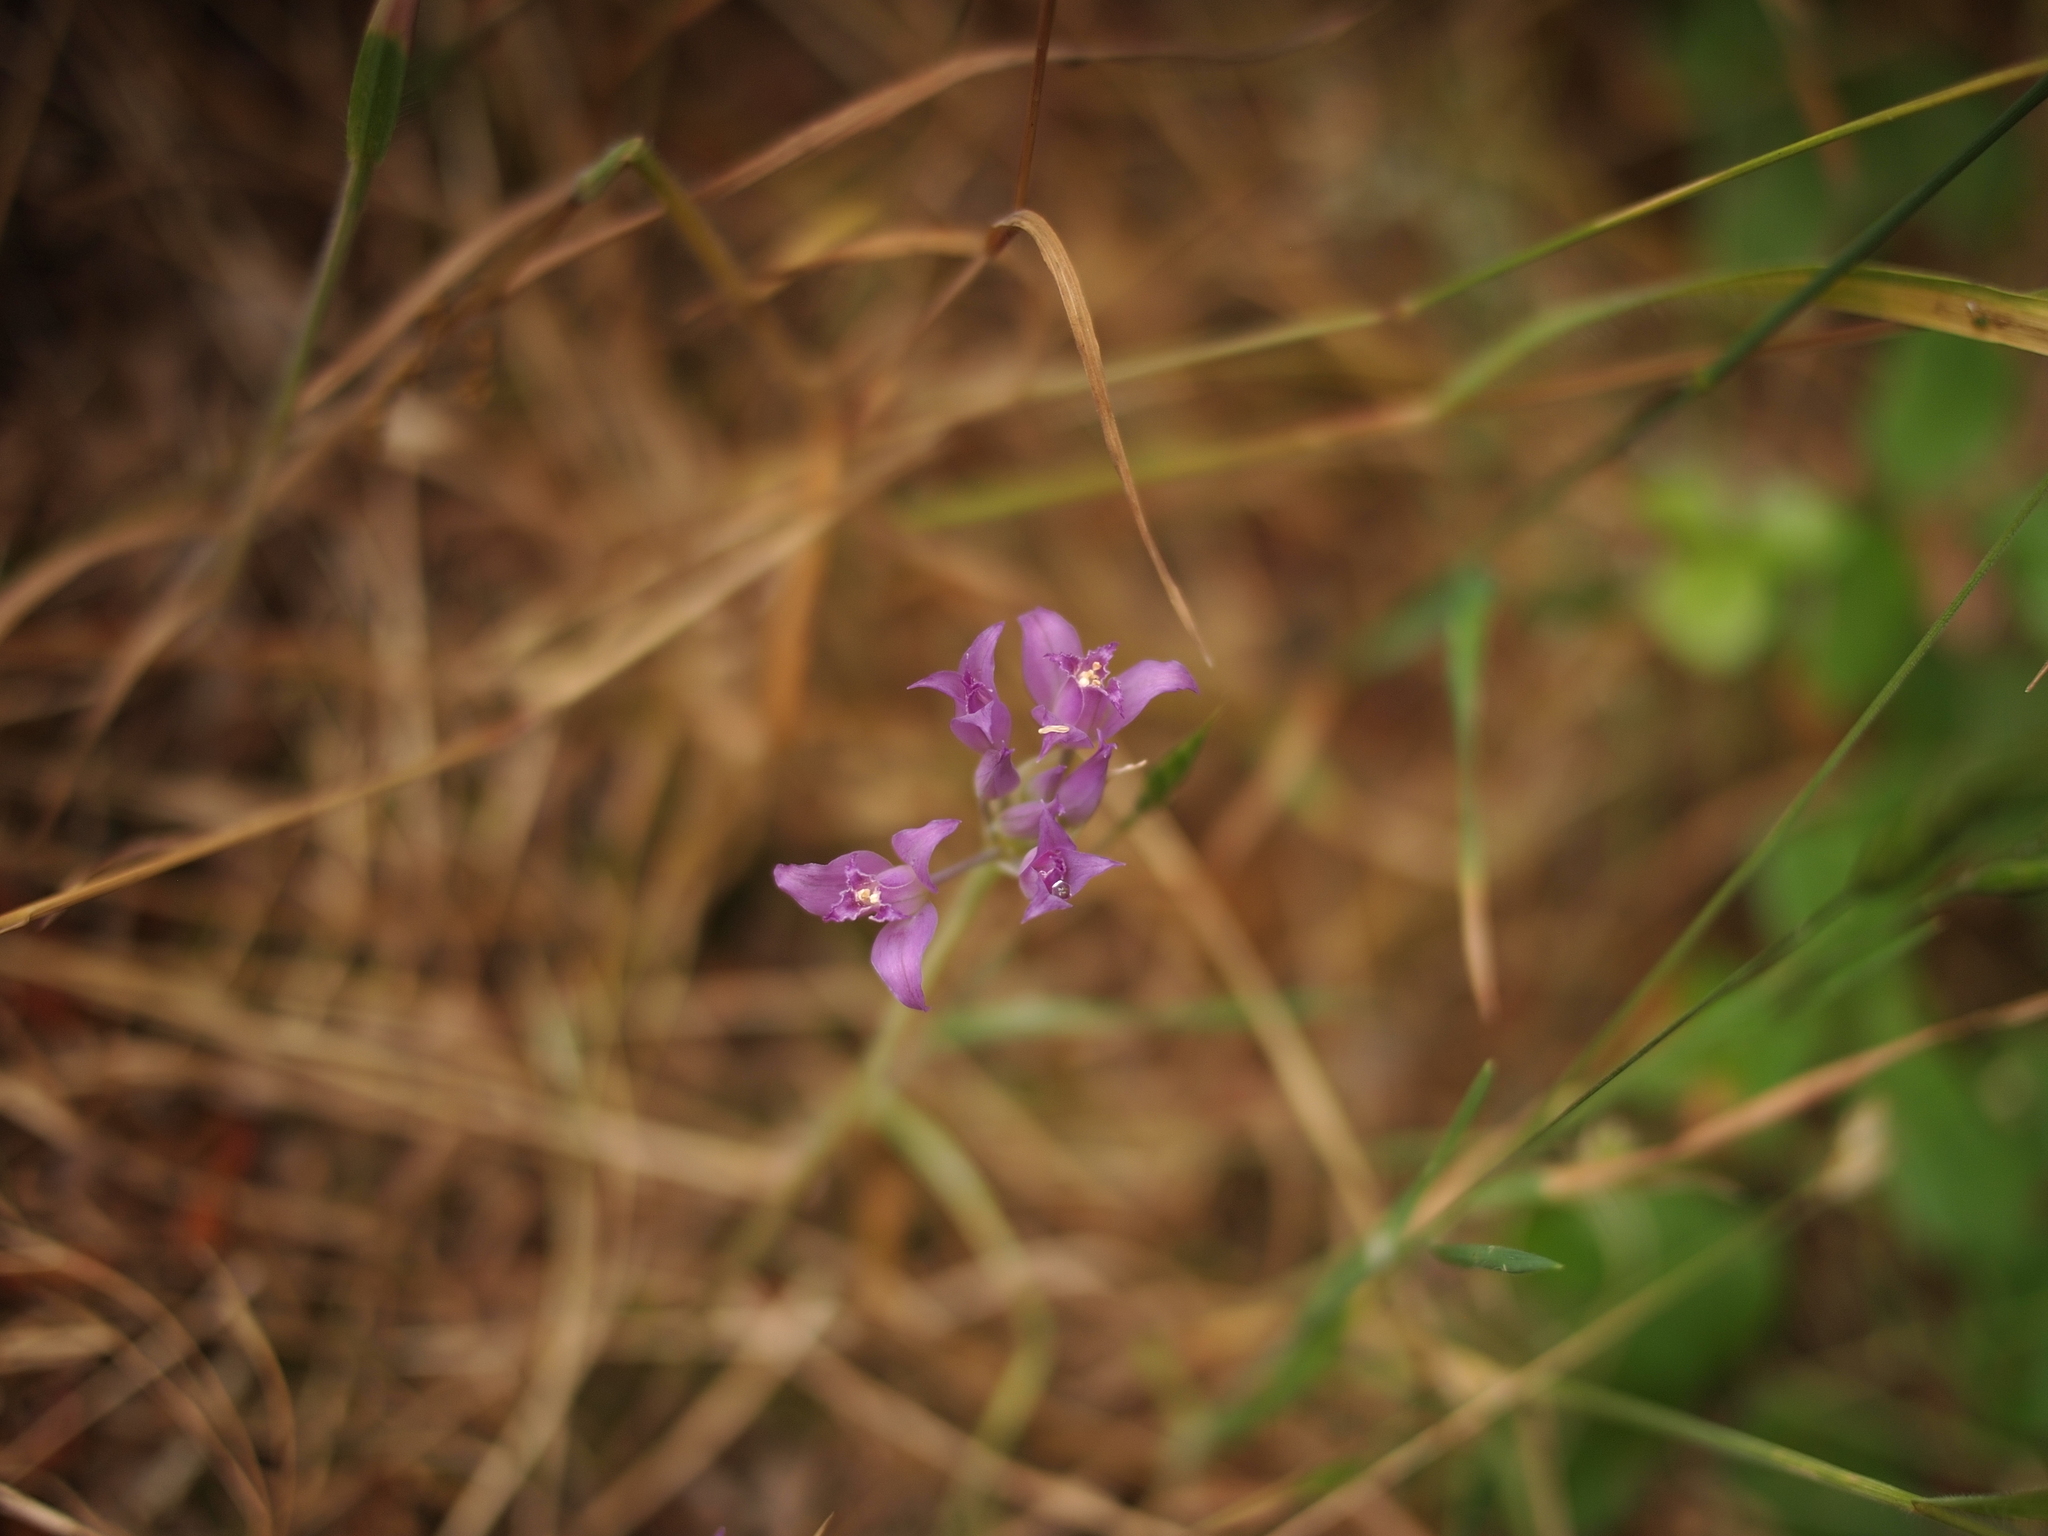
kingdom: Plantae
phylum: Tracheophyta
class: Liliopsida
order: Asparagales
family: Amaryllidaceae
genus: Allium
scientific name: Allium acuminatum
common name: Hooker's onion
